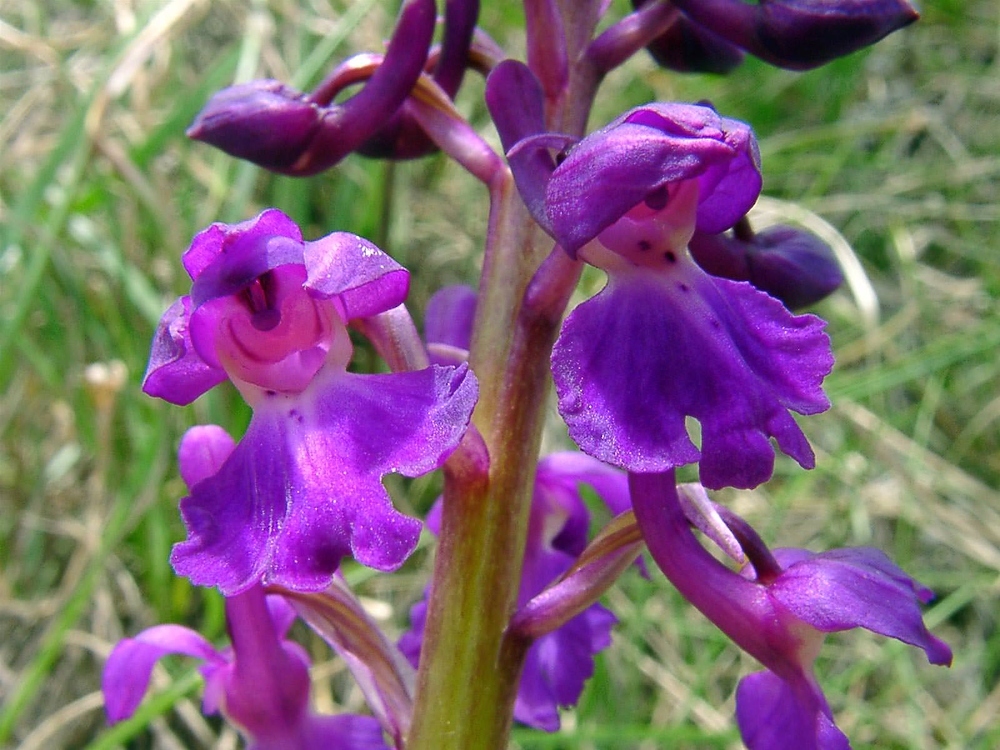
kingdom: Plantae
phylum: Tracheophyta
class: Liliopsida
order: Asparagales
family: Orchidaceae
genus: Orchis
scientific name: Orchis mascula
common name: Early-purple orchid
